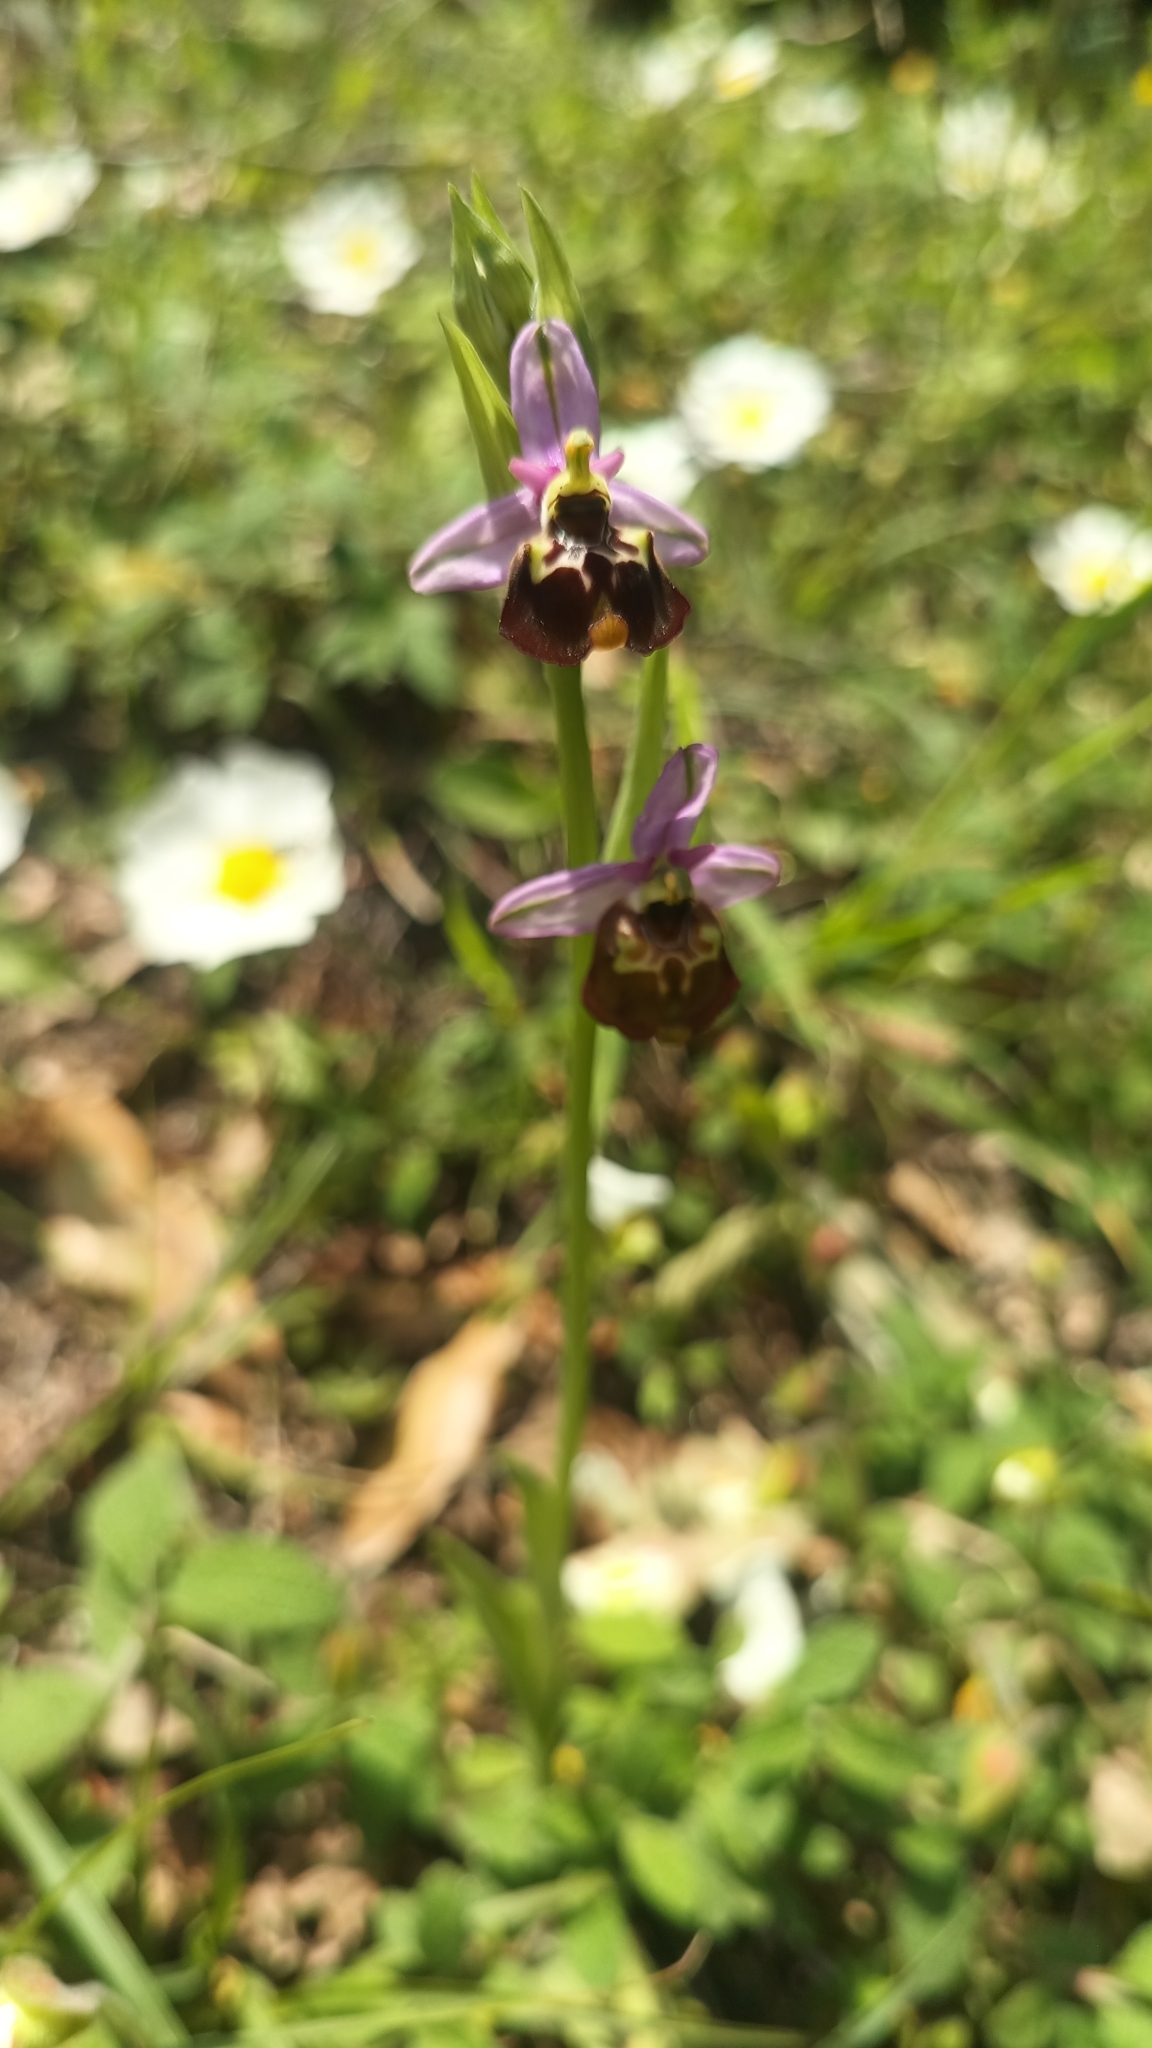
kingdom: Plantae
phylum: Tracheophyta
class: Liliopsida
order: Asparagales
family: Orchidaceae
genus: Ophrys
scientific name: Ophrys holosericea
